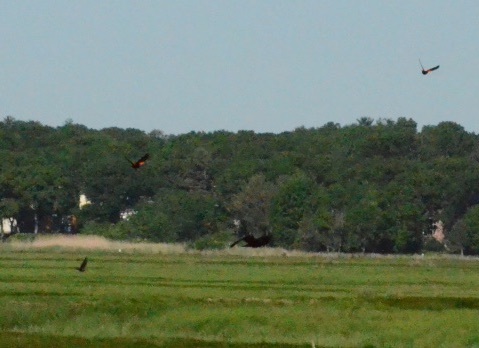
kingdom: Animalia
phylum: Chordata
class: Aves
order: Passeriformes
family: Icteridae
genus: Agelaius
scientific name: Agelaius phoeniceus
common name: Red-winged blackbird
